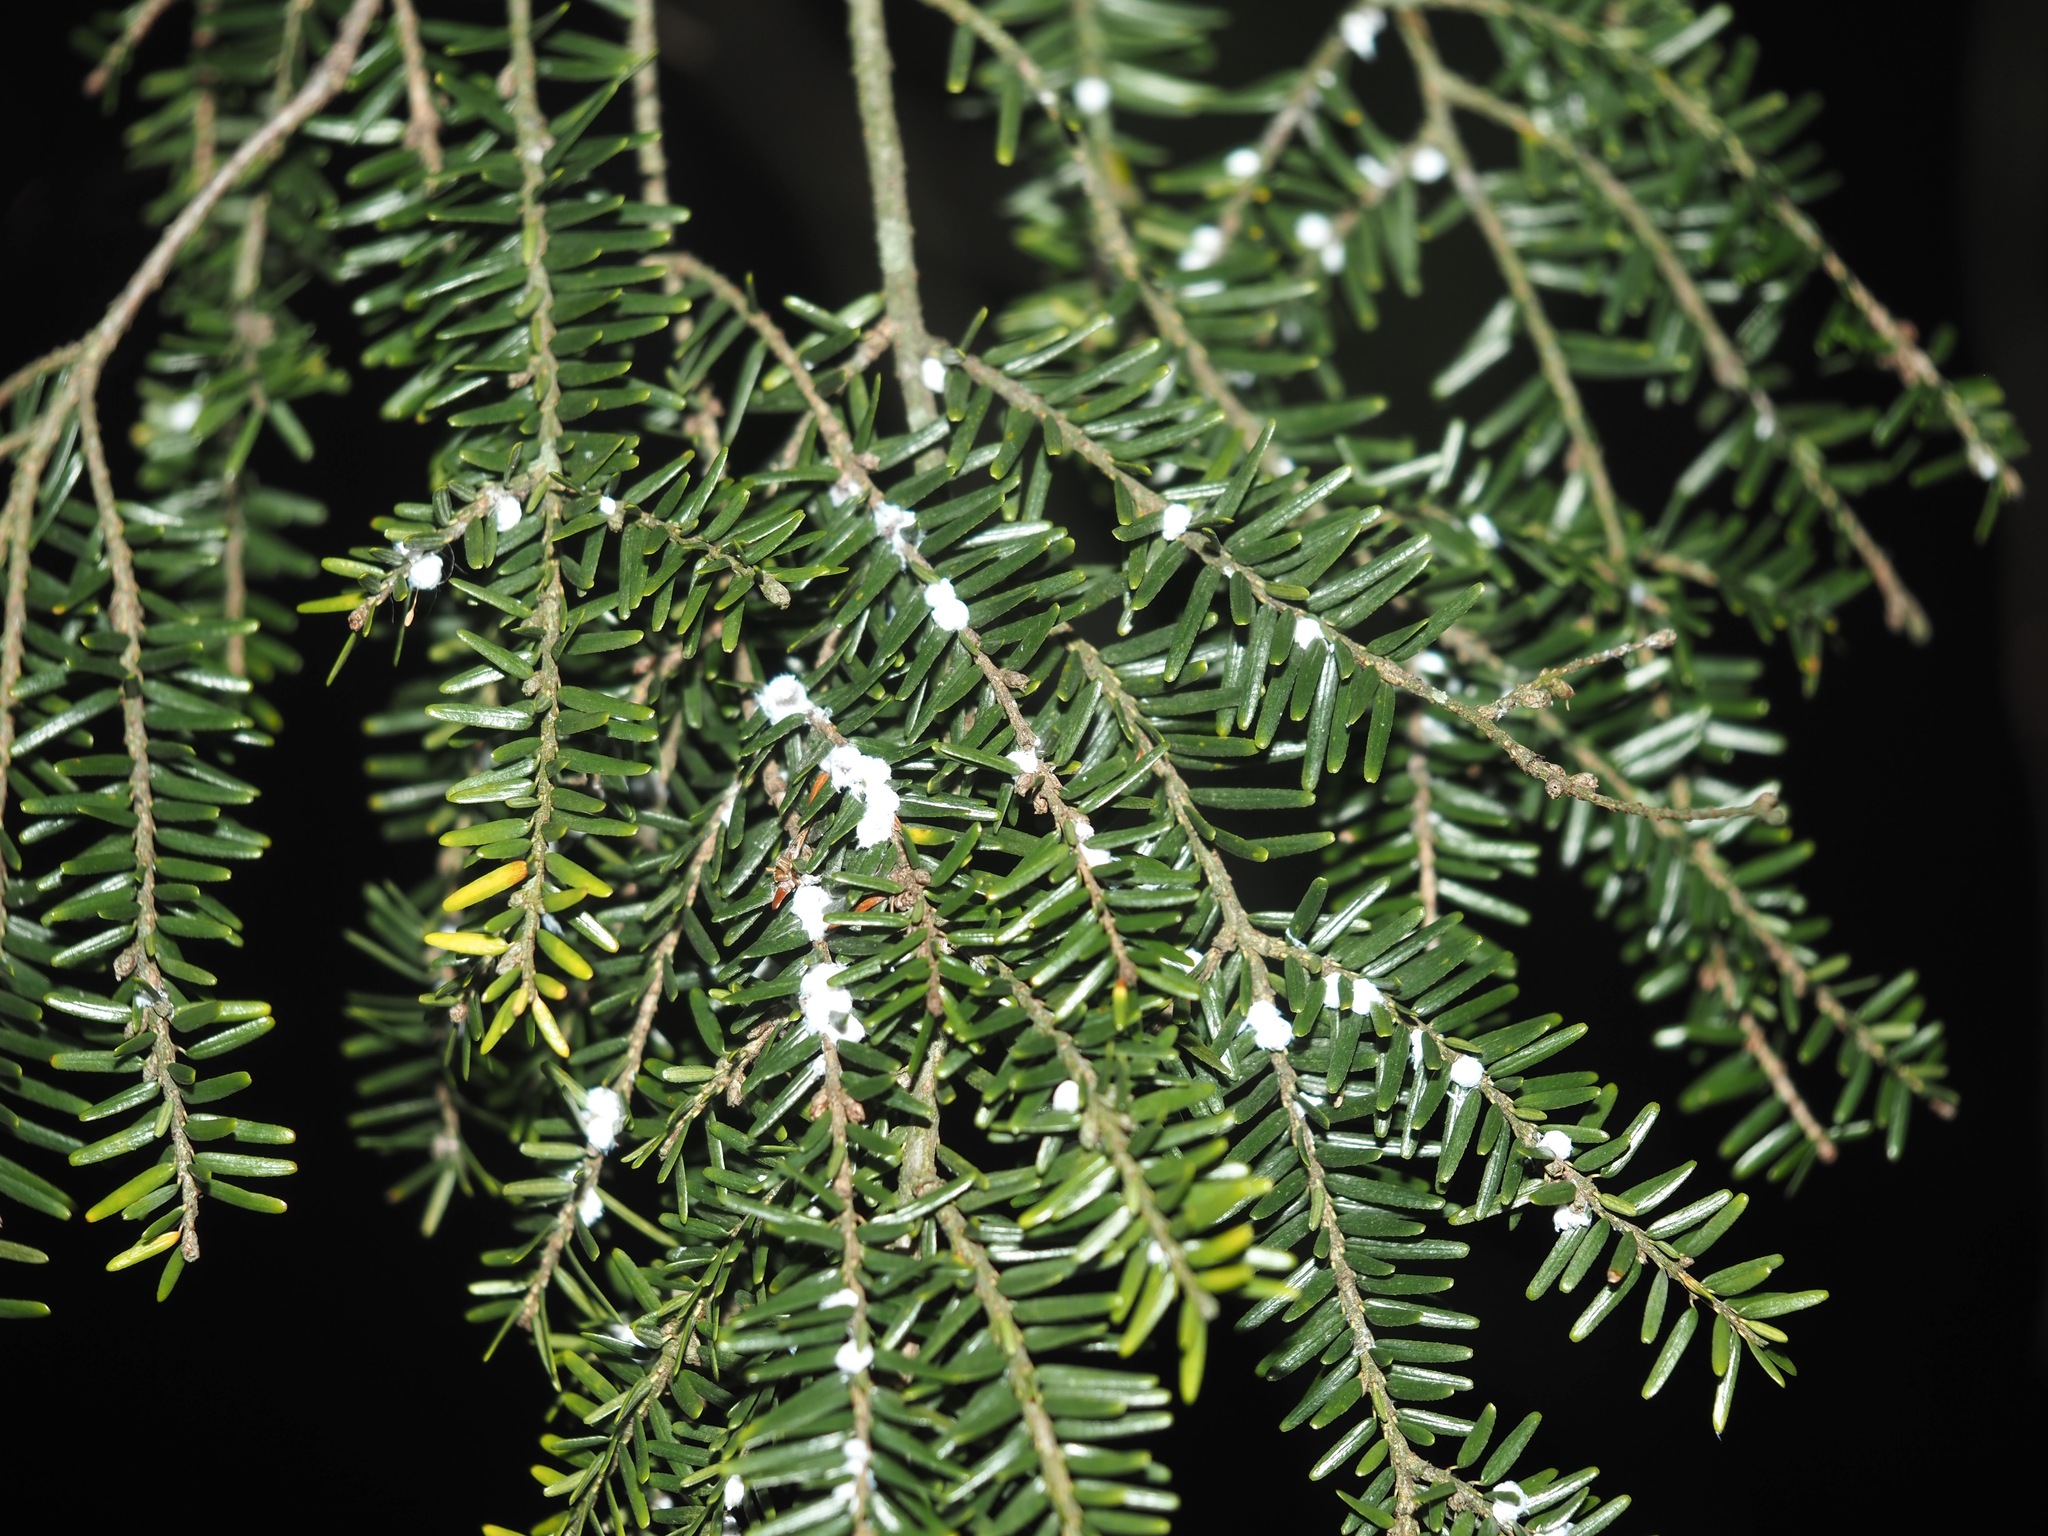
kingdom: Plantae
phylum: Tracheophyta
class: Pinopsida
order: Pinales
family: Pinaceae
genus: Tsuga
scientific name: Tsuga canadensis
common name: Eastern hemlock
